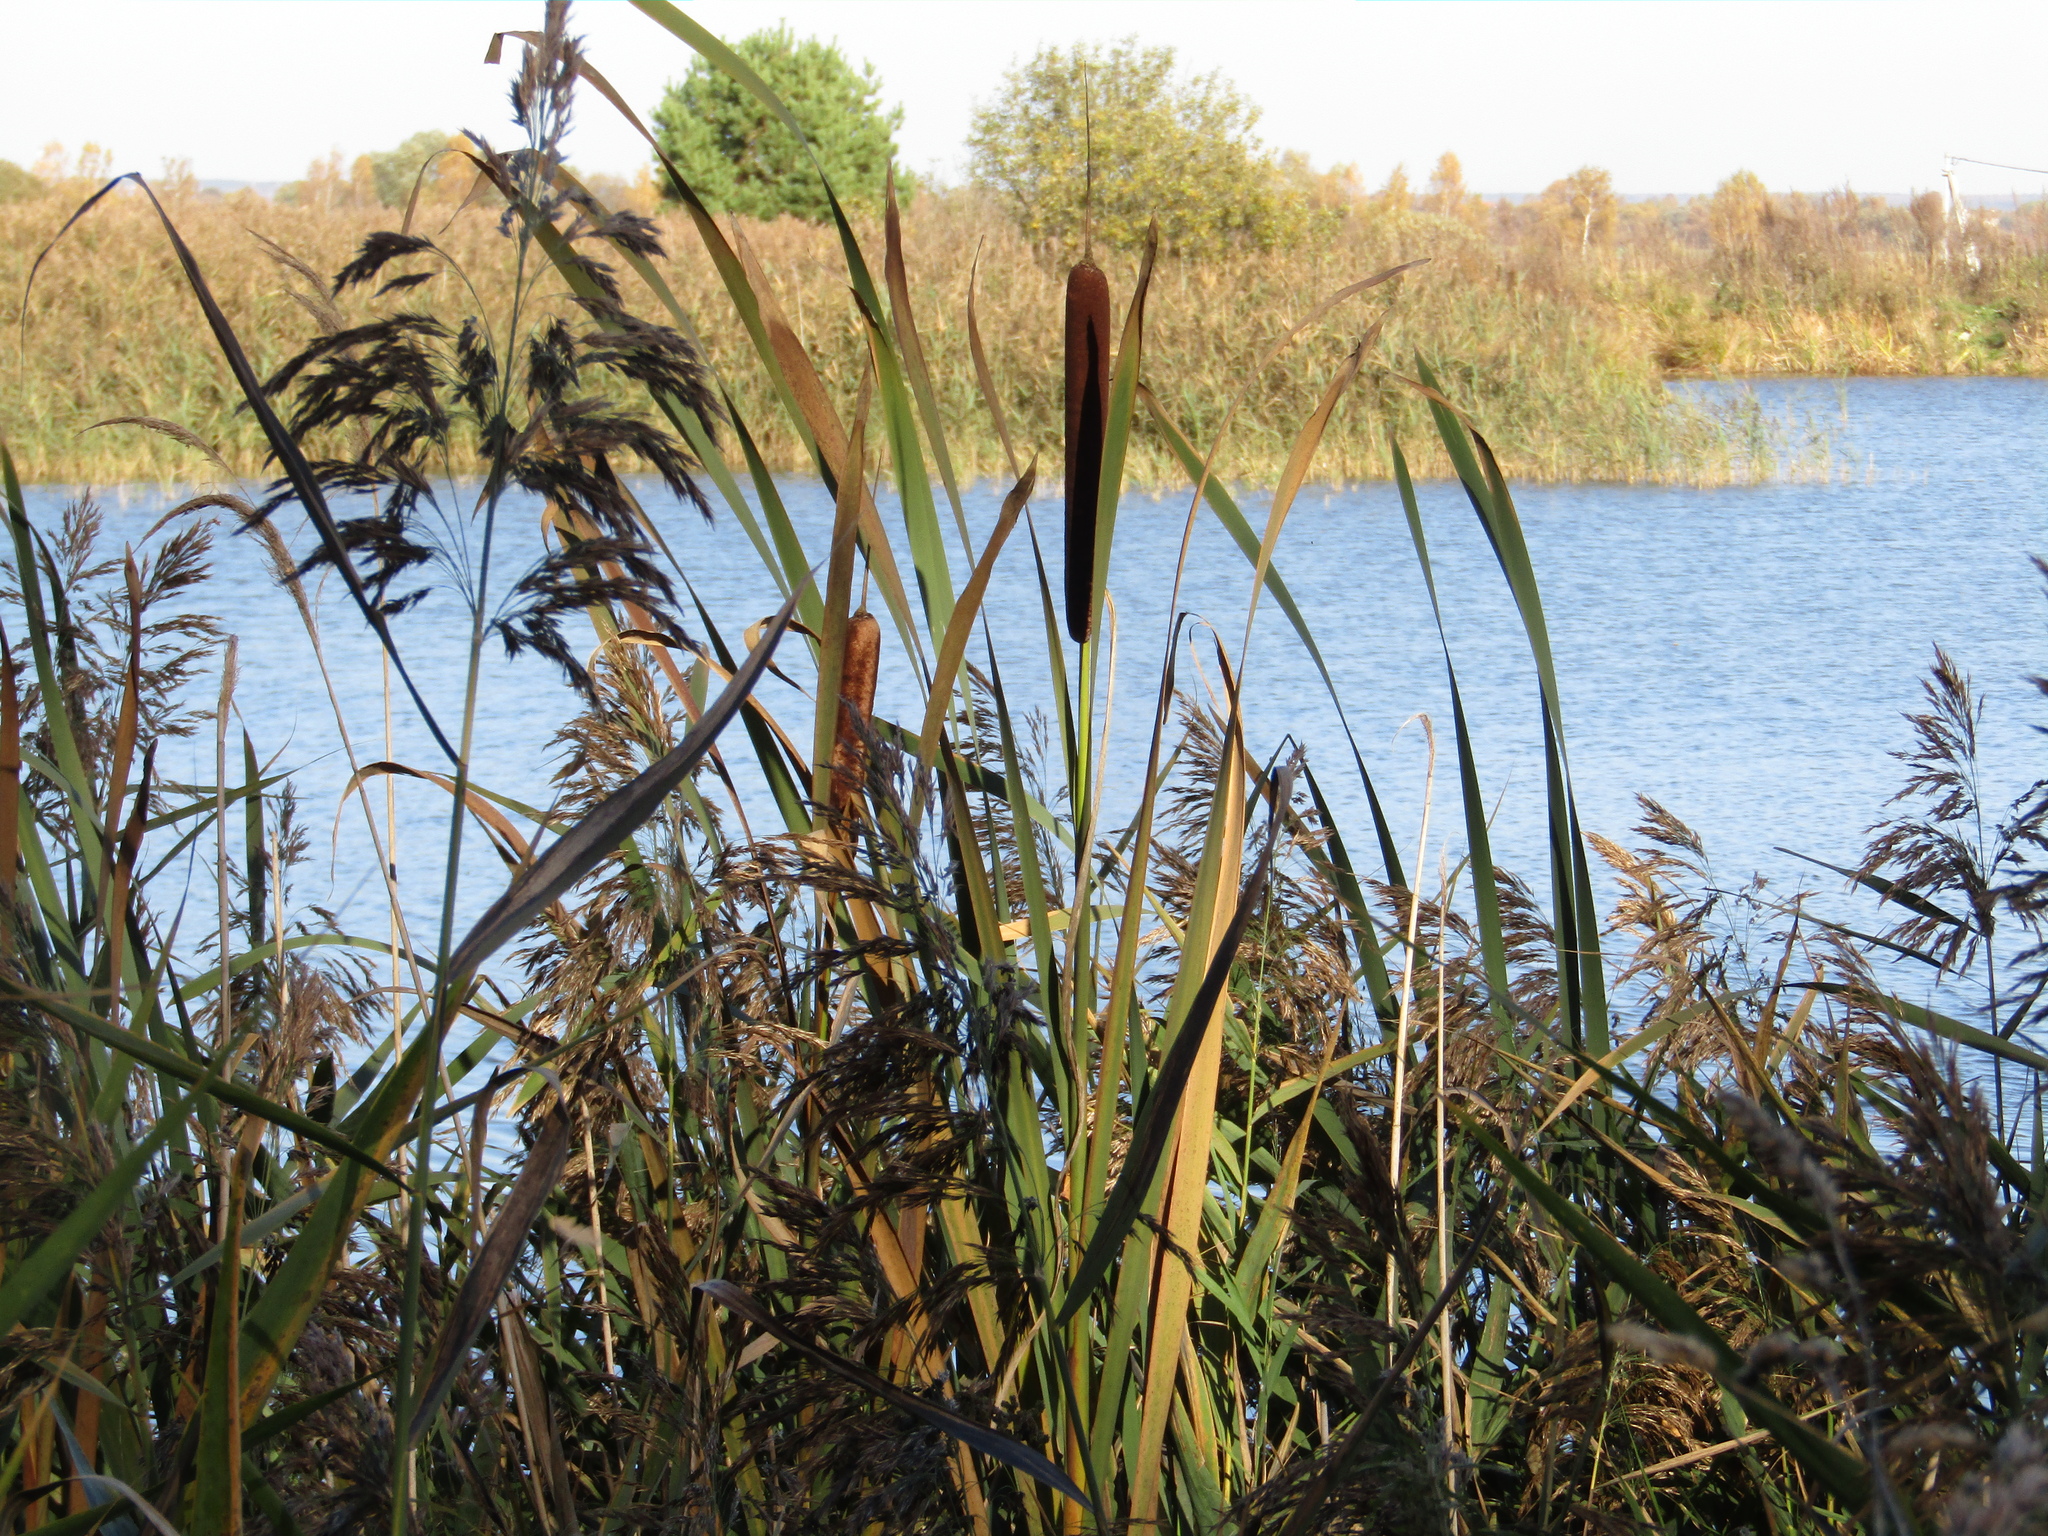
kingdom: Plantae
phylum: Tracheophyta
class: Liliopsida
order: Poales
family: Typhaceae
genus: Typha
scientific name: Typha latifolia
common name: Broadleaf cattail
